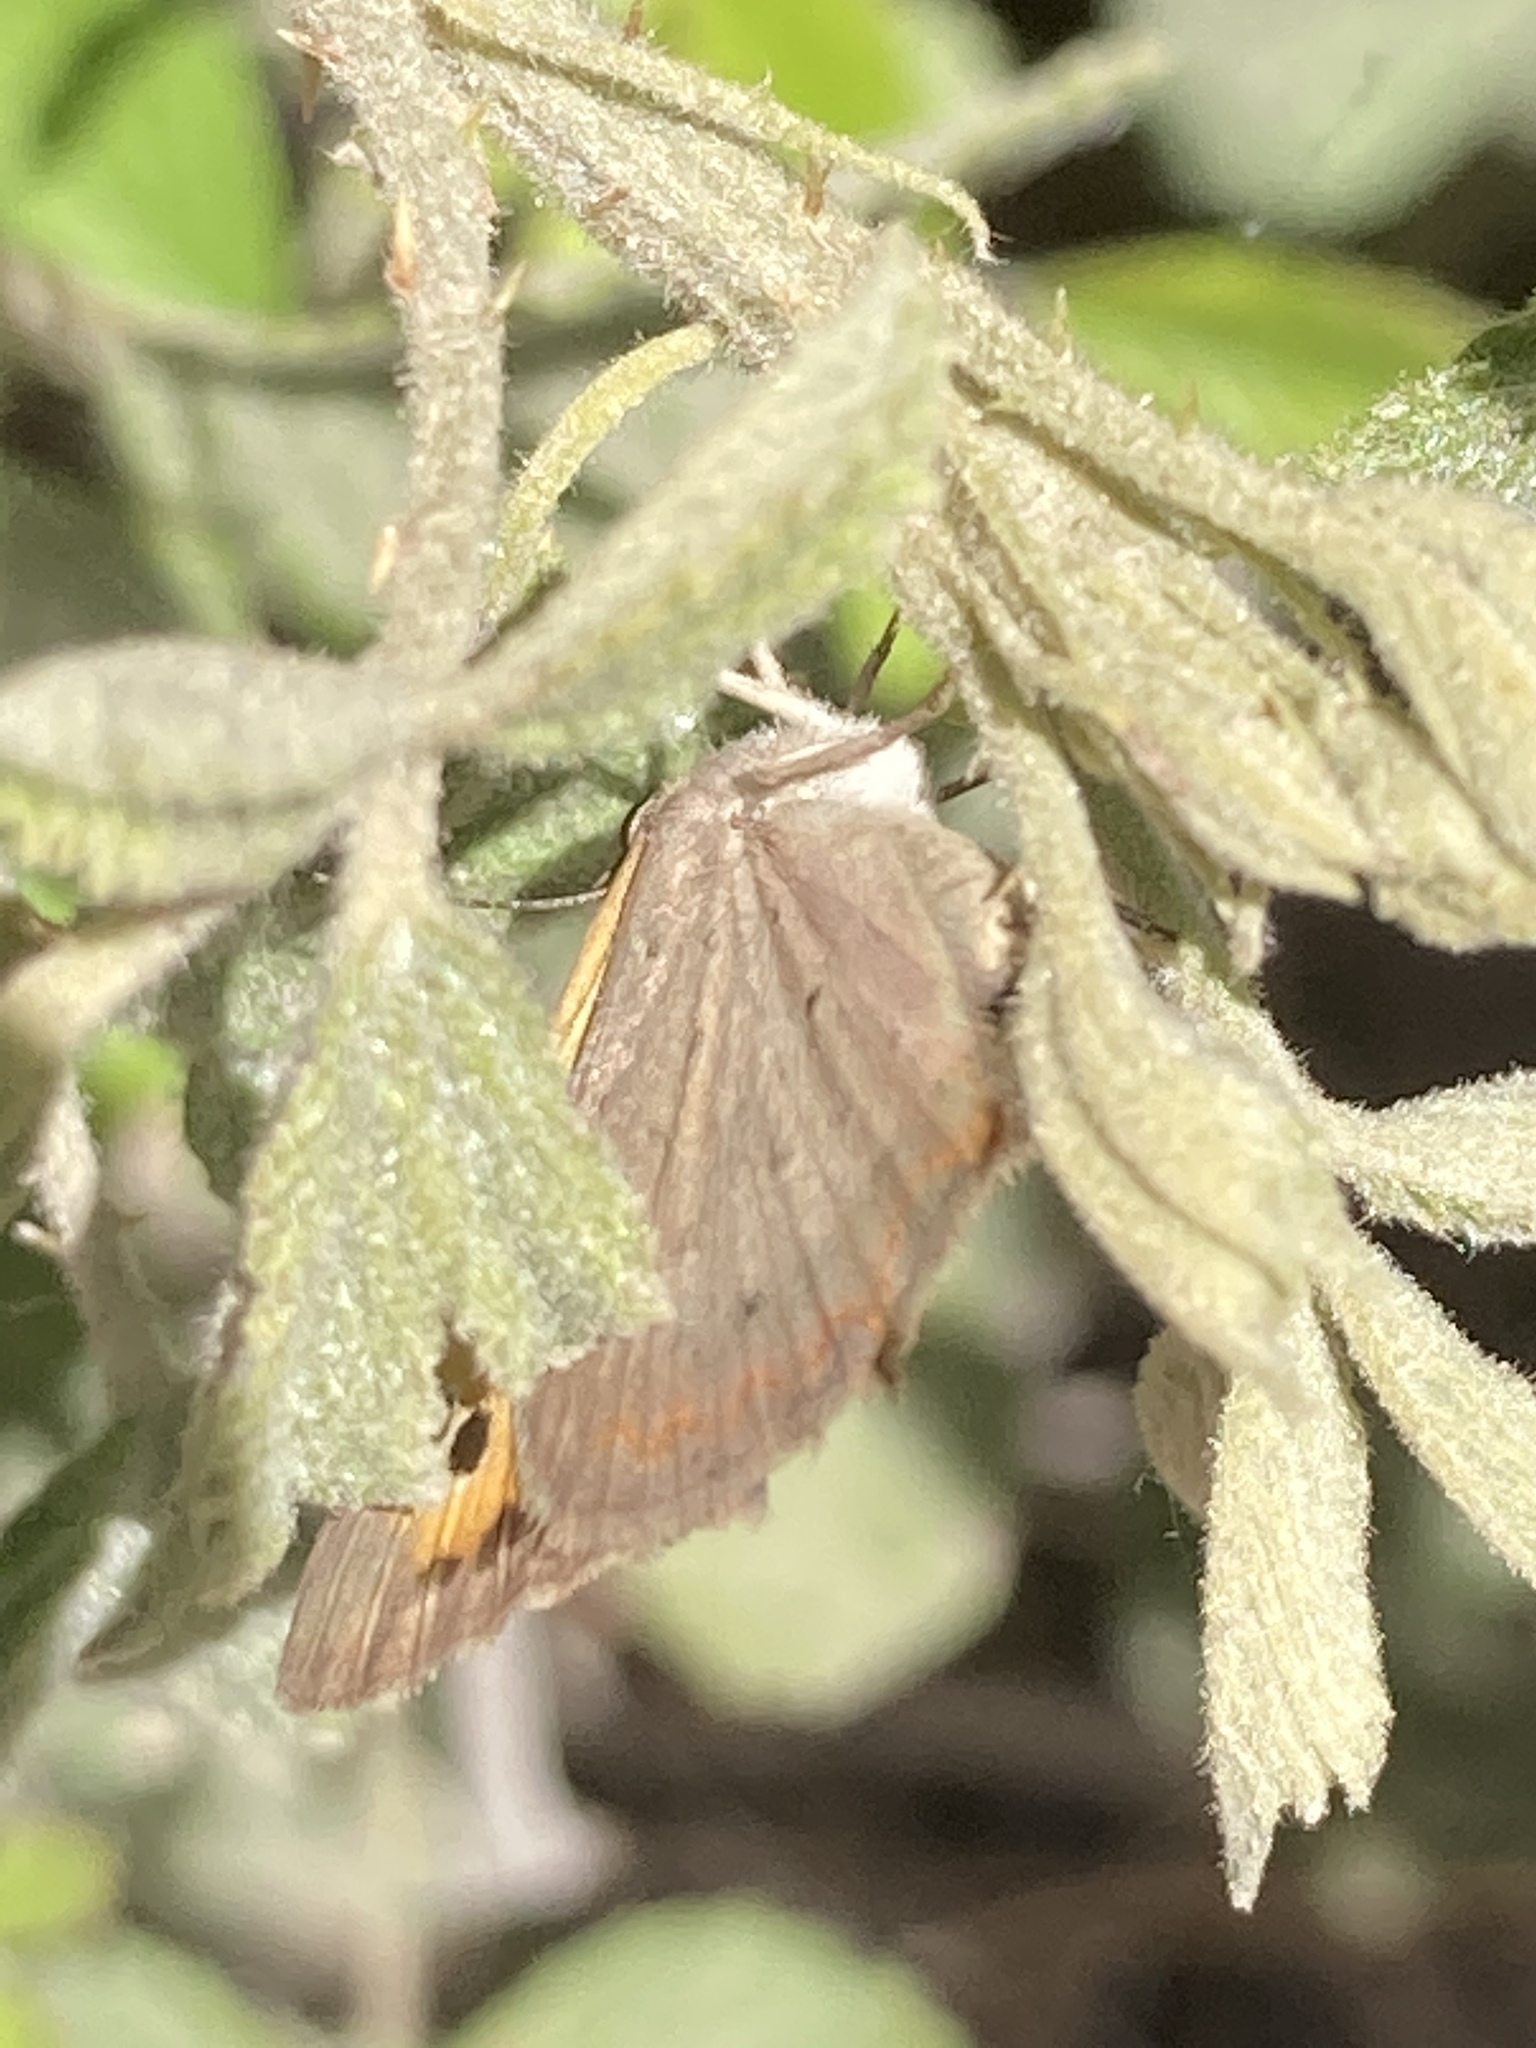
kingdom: Animalia
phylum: Arthropoda
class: Insecta
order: Lepidoptera
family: Lycaenidae
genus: Lycaena
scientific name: Lycaena phlaeas
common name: Small copper
